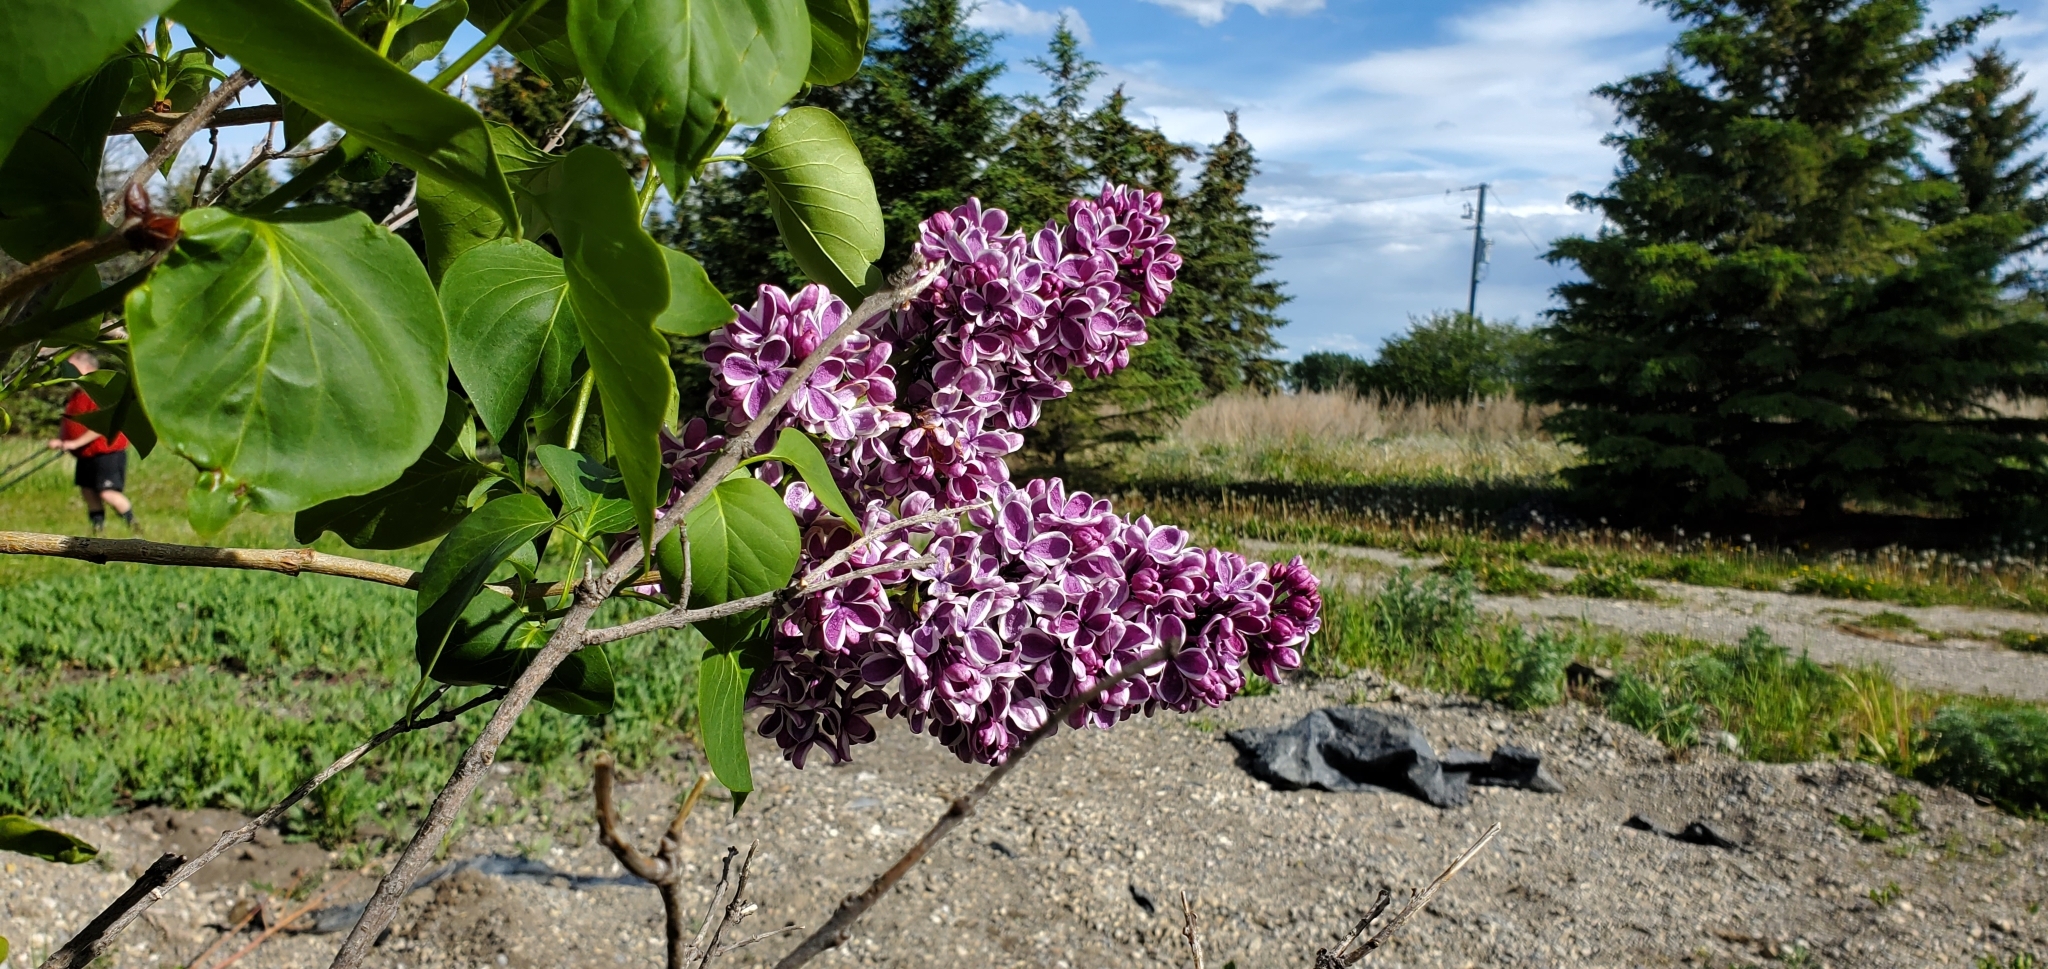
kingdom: Plantae
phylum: Tracheophyta
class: Magnoliopsida
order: Lamiales
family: Oleaceae
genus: Syringa
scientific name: Syringa vulgaris
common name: Common lilac
